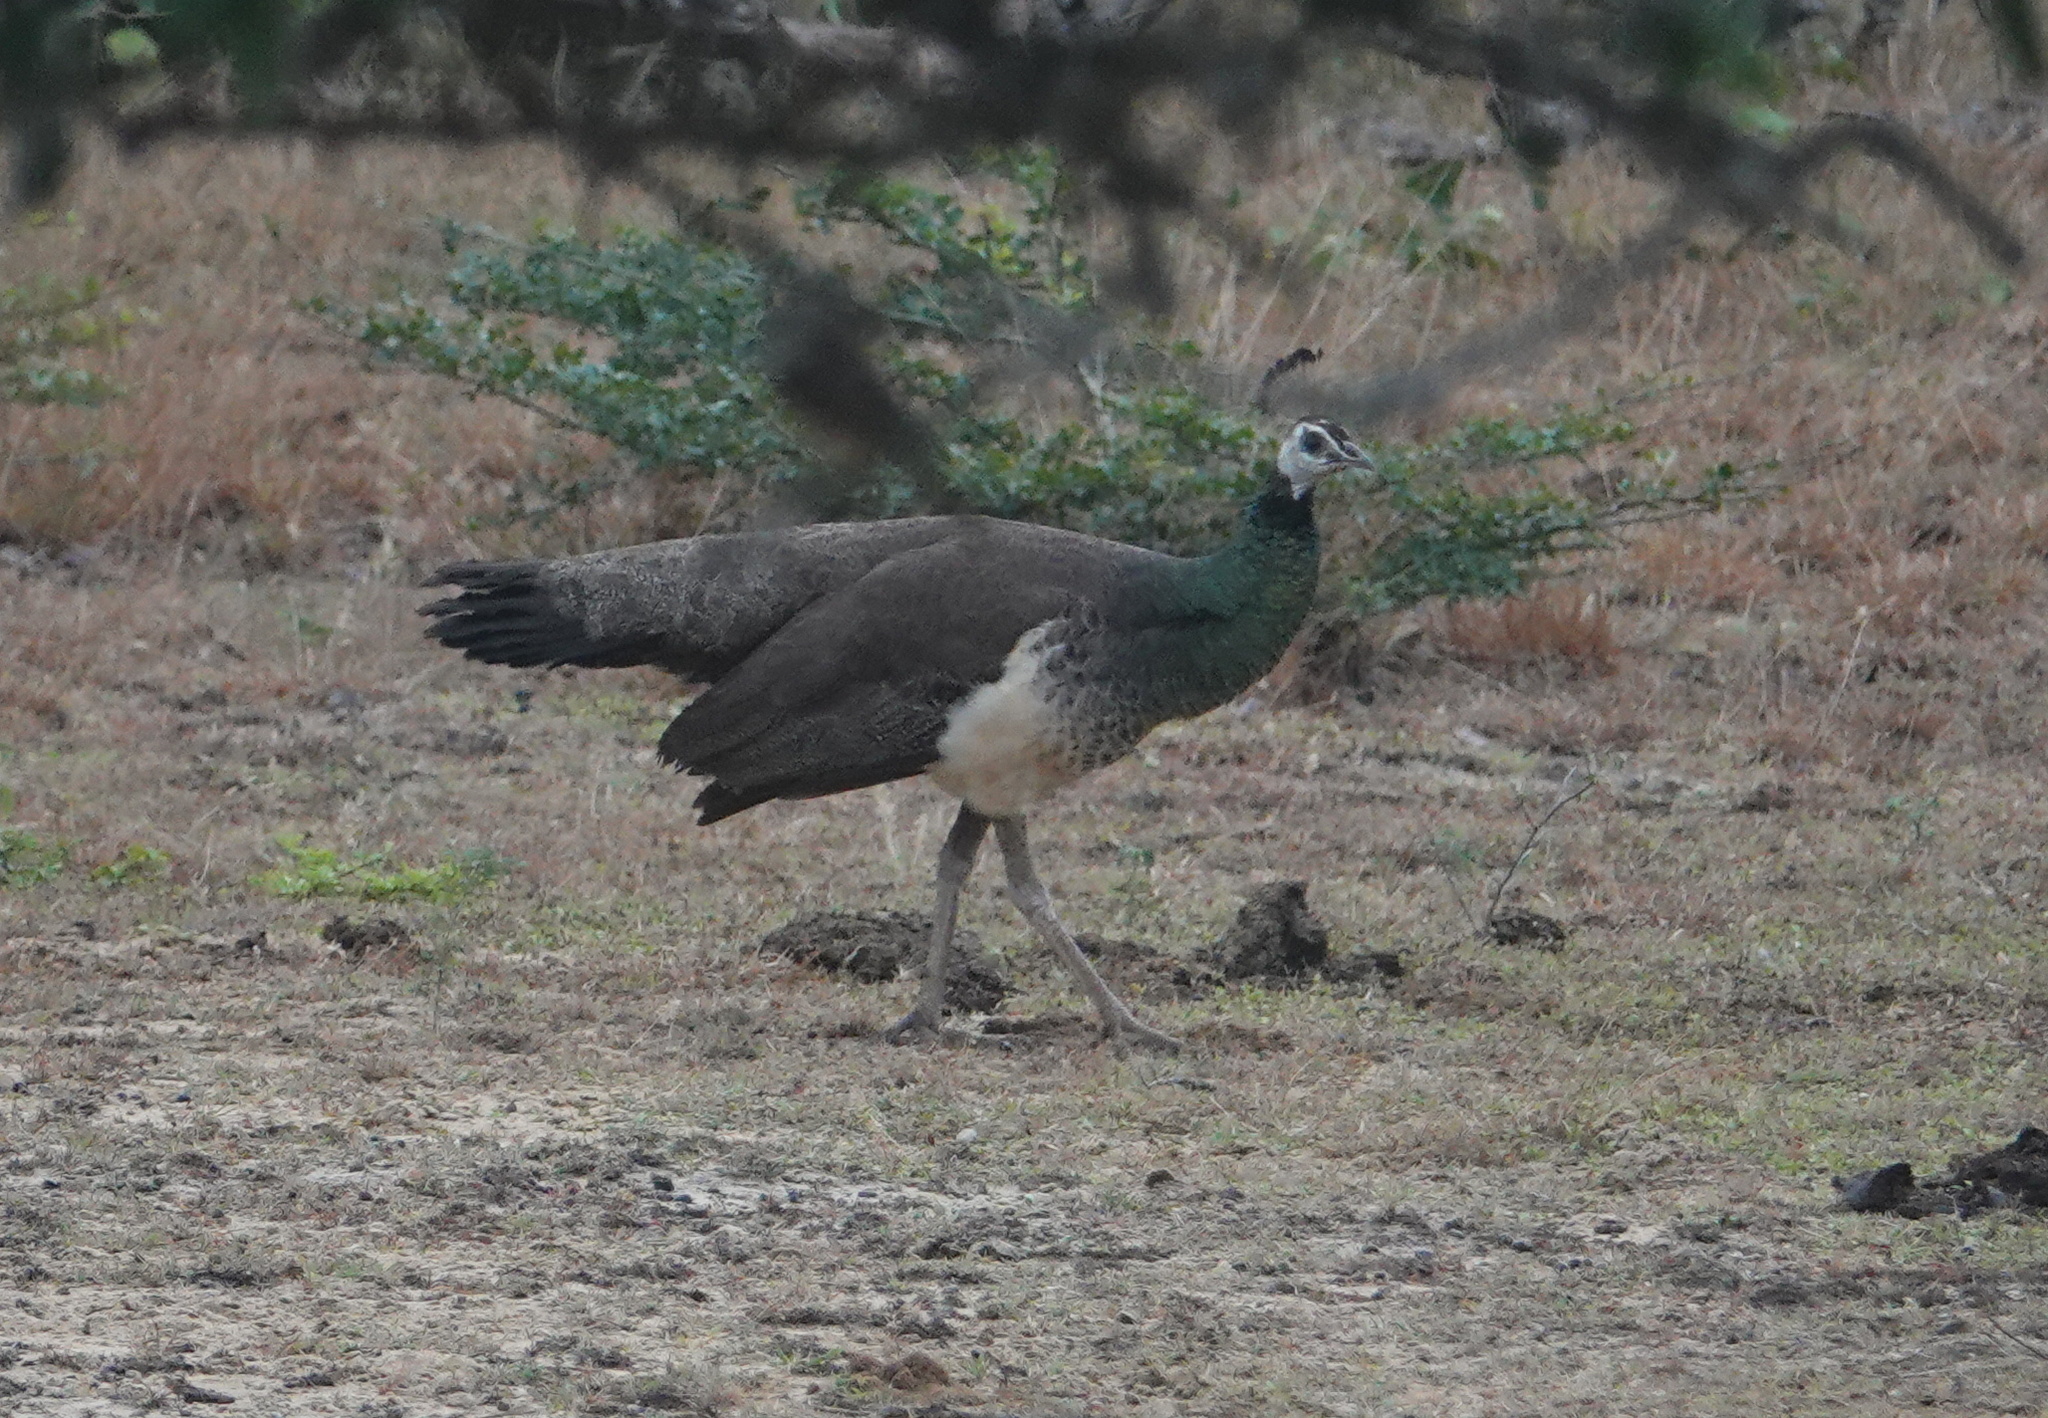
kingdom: Animalia
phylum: Chordata
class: Aves
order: Galliformes
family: Phasianidae
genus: Pavo
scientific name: Pavo cristatus
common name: Indian peafowl
